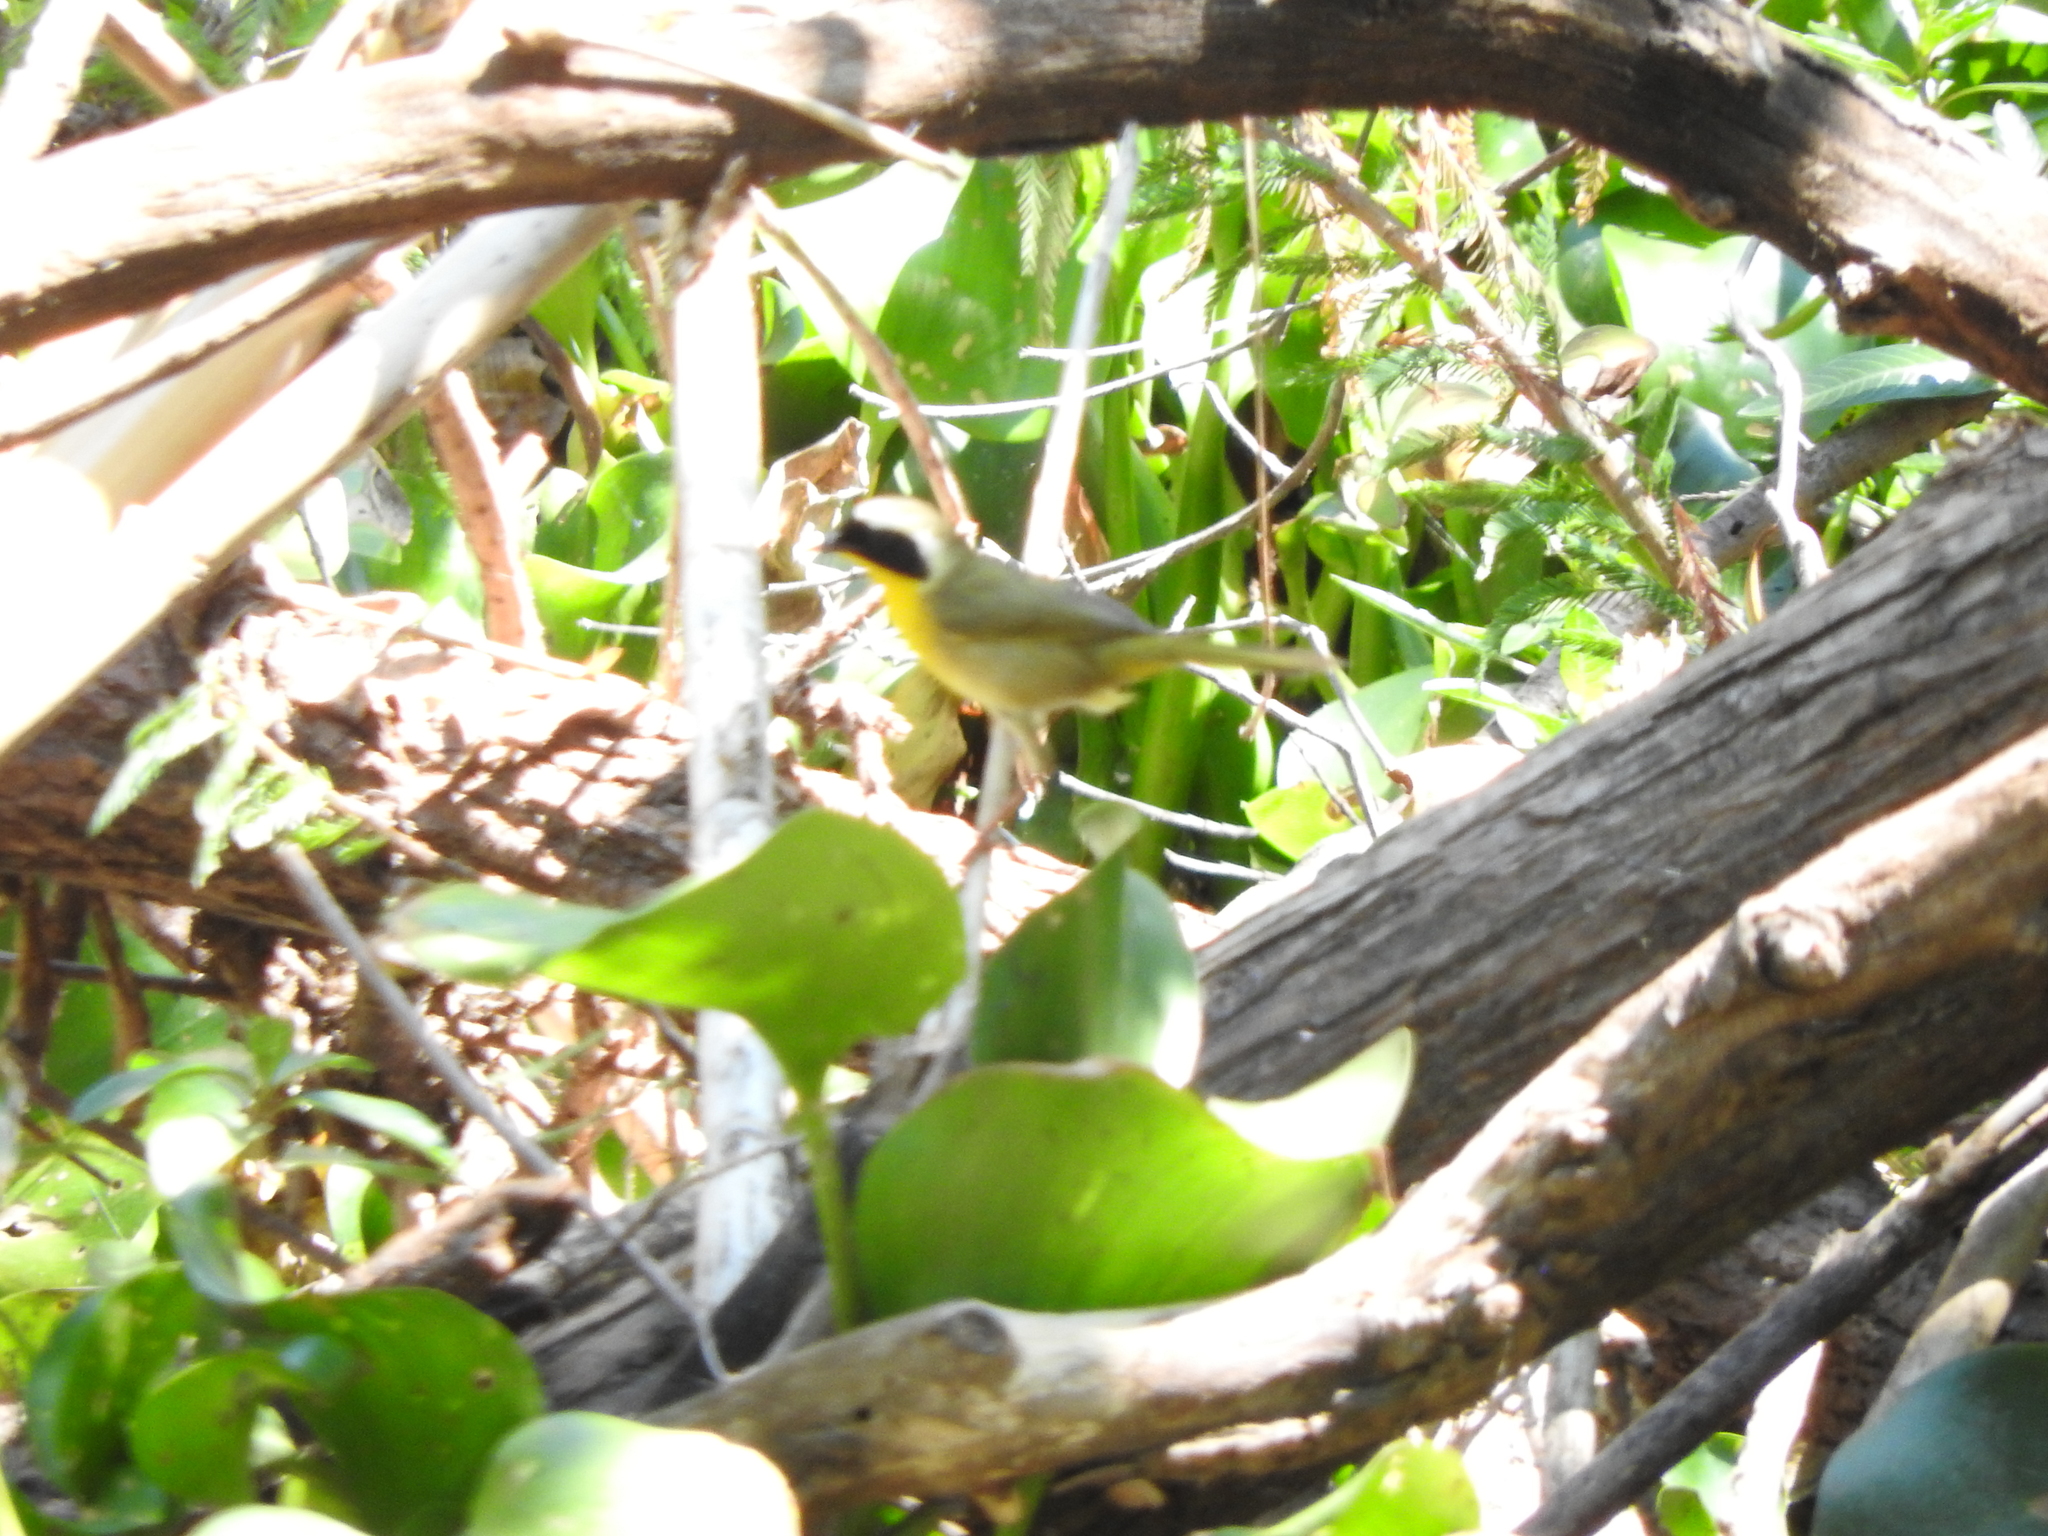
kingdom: Animalia
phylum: Chordata
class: Aves
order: Passeriformes
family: Parulidae
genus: Geothlypis
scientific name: Geothlypis trichas
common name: Common yellowthroat
